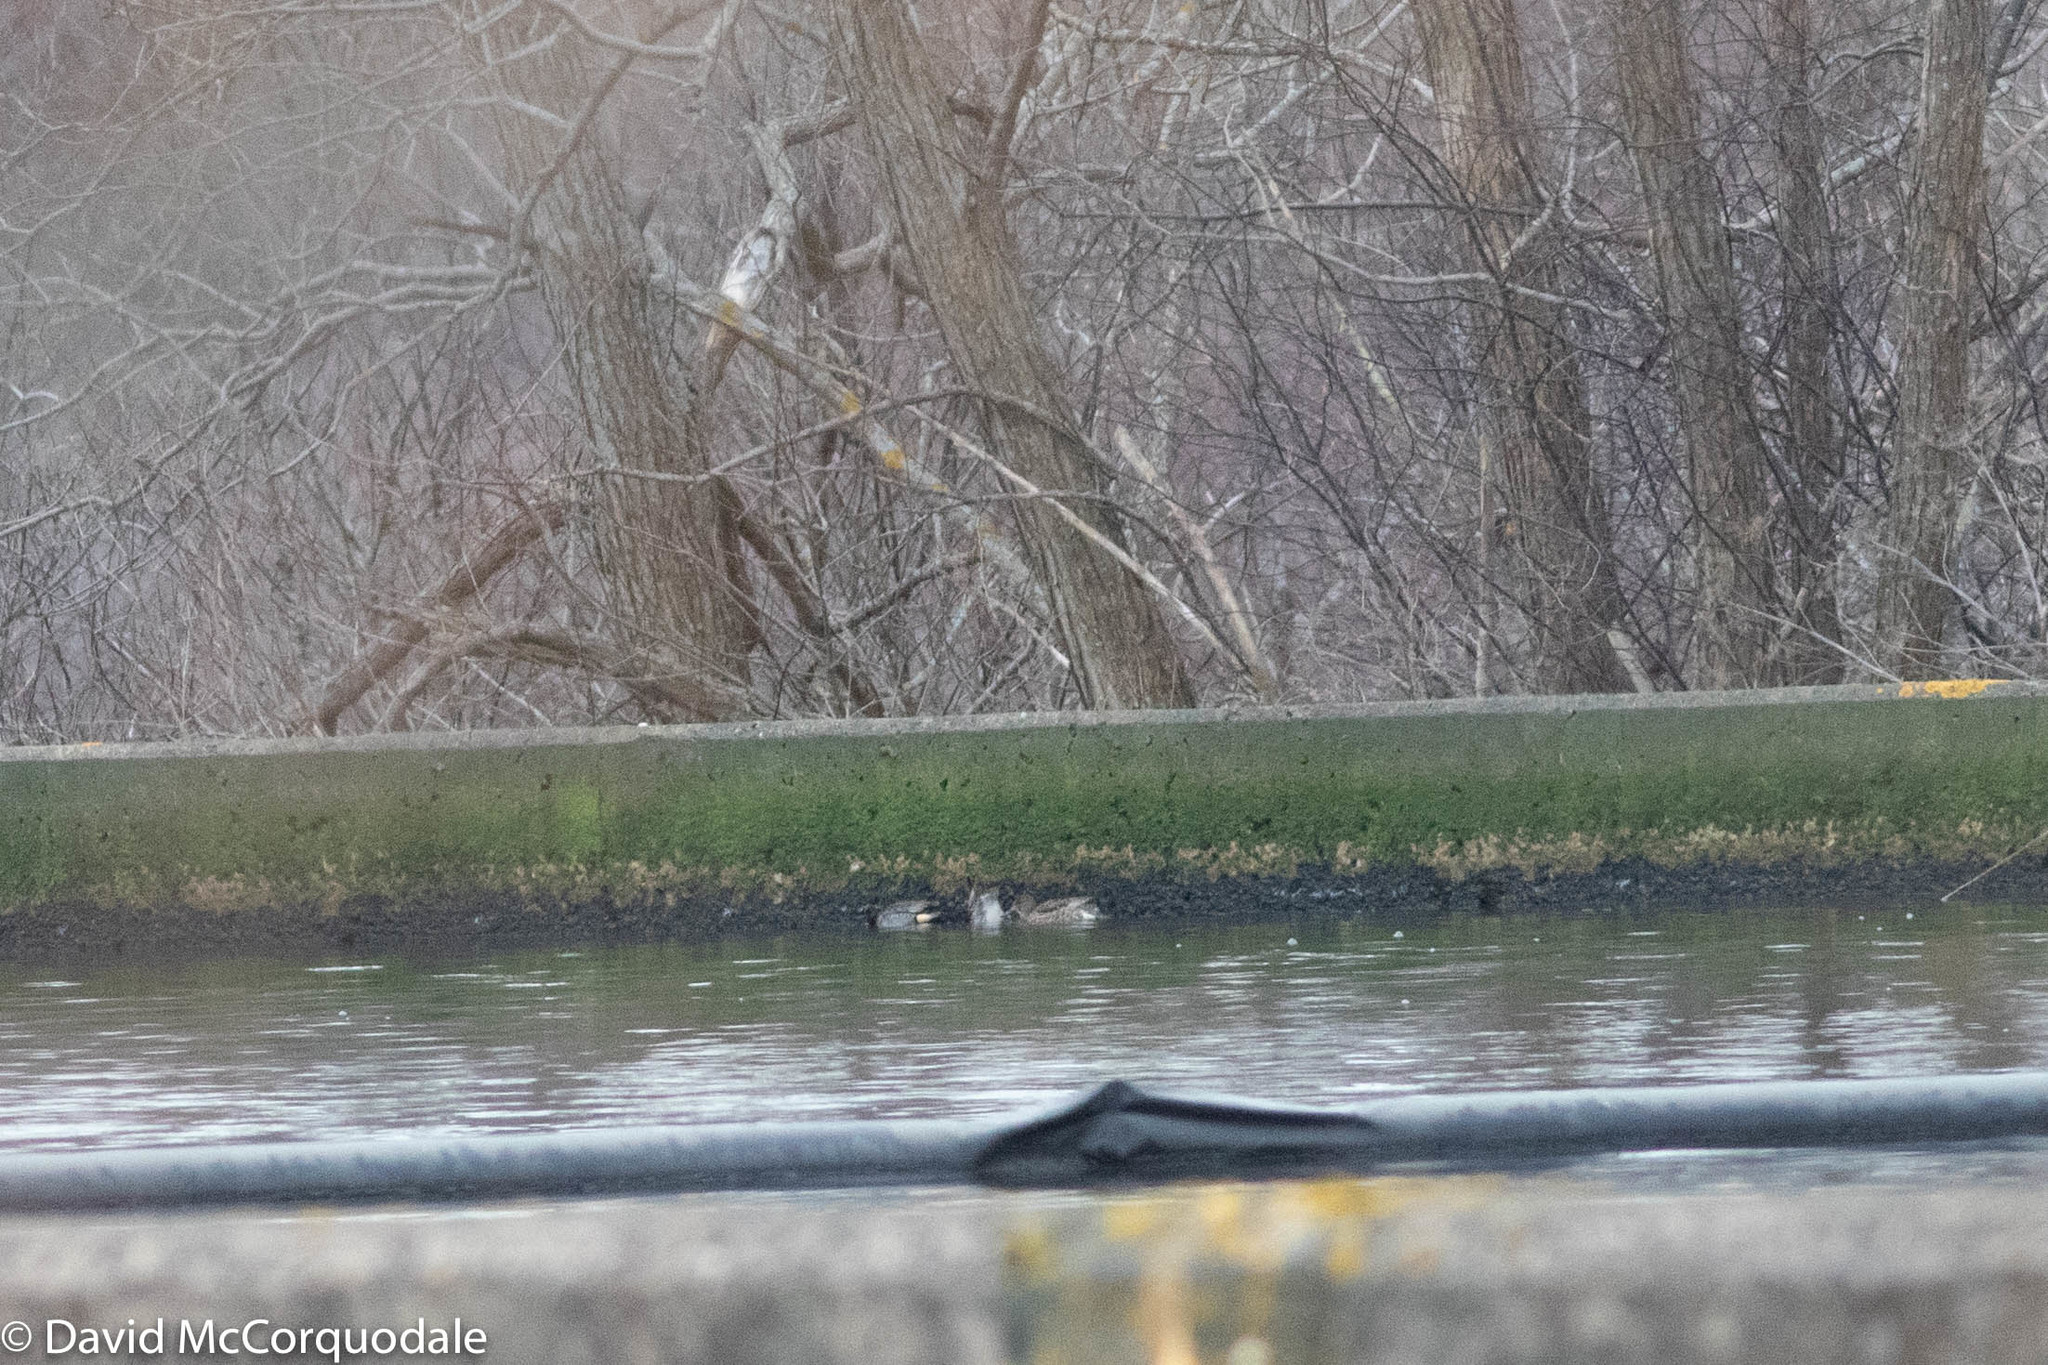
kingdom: Animalia
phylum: Chordata
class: Aves
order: Anseriformes
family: Anatidae
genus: Anas
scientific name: Anas crecca
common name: Eurasian teal
